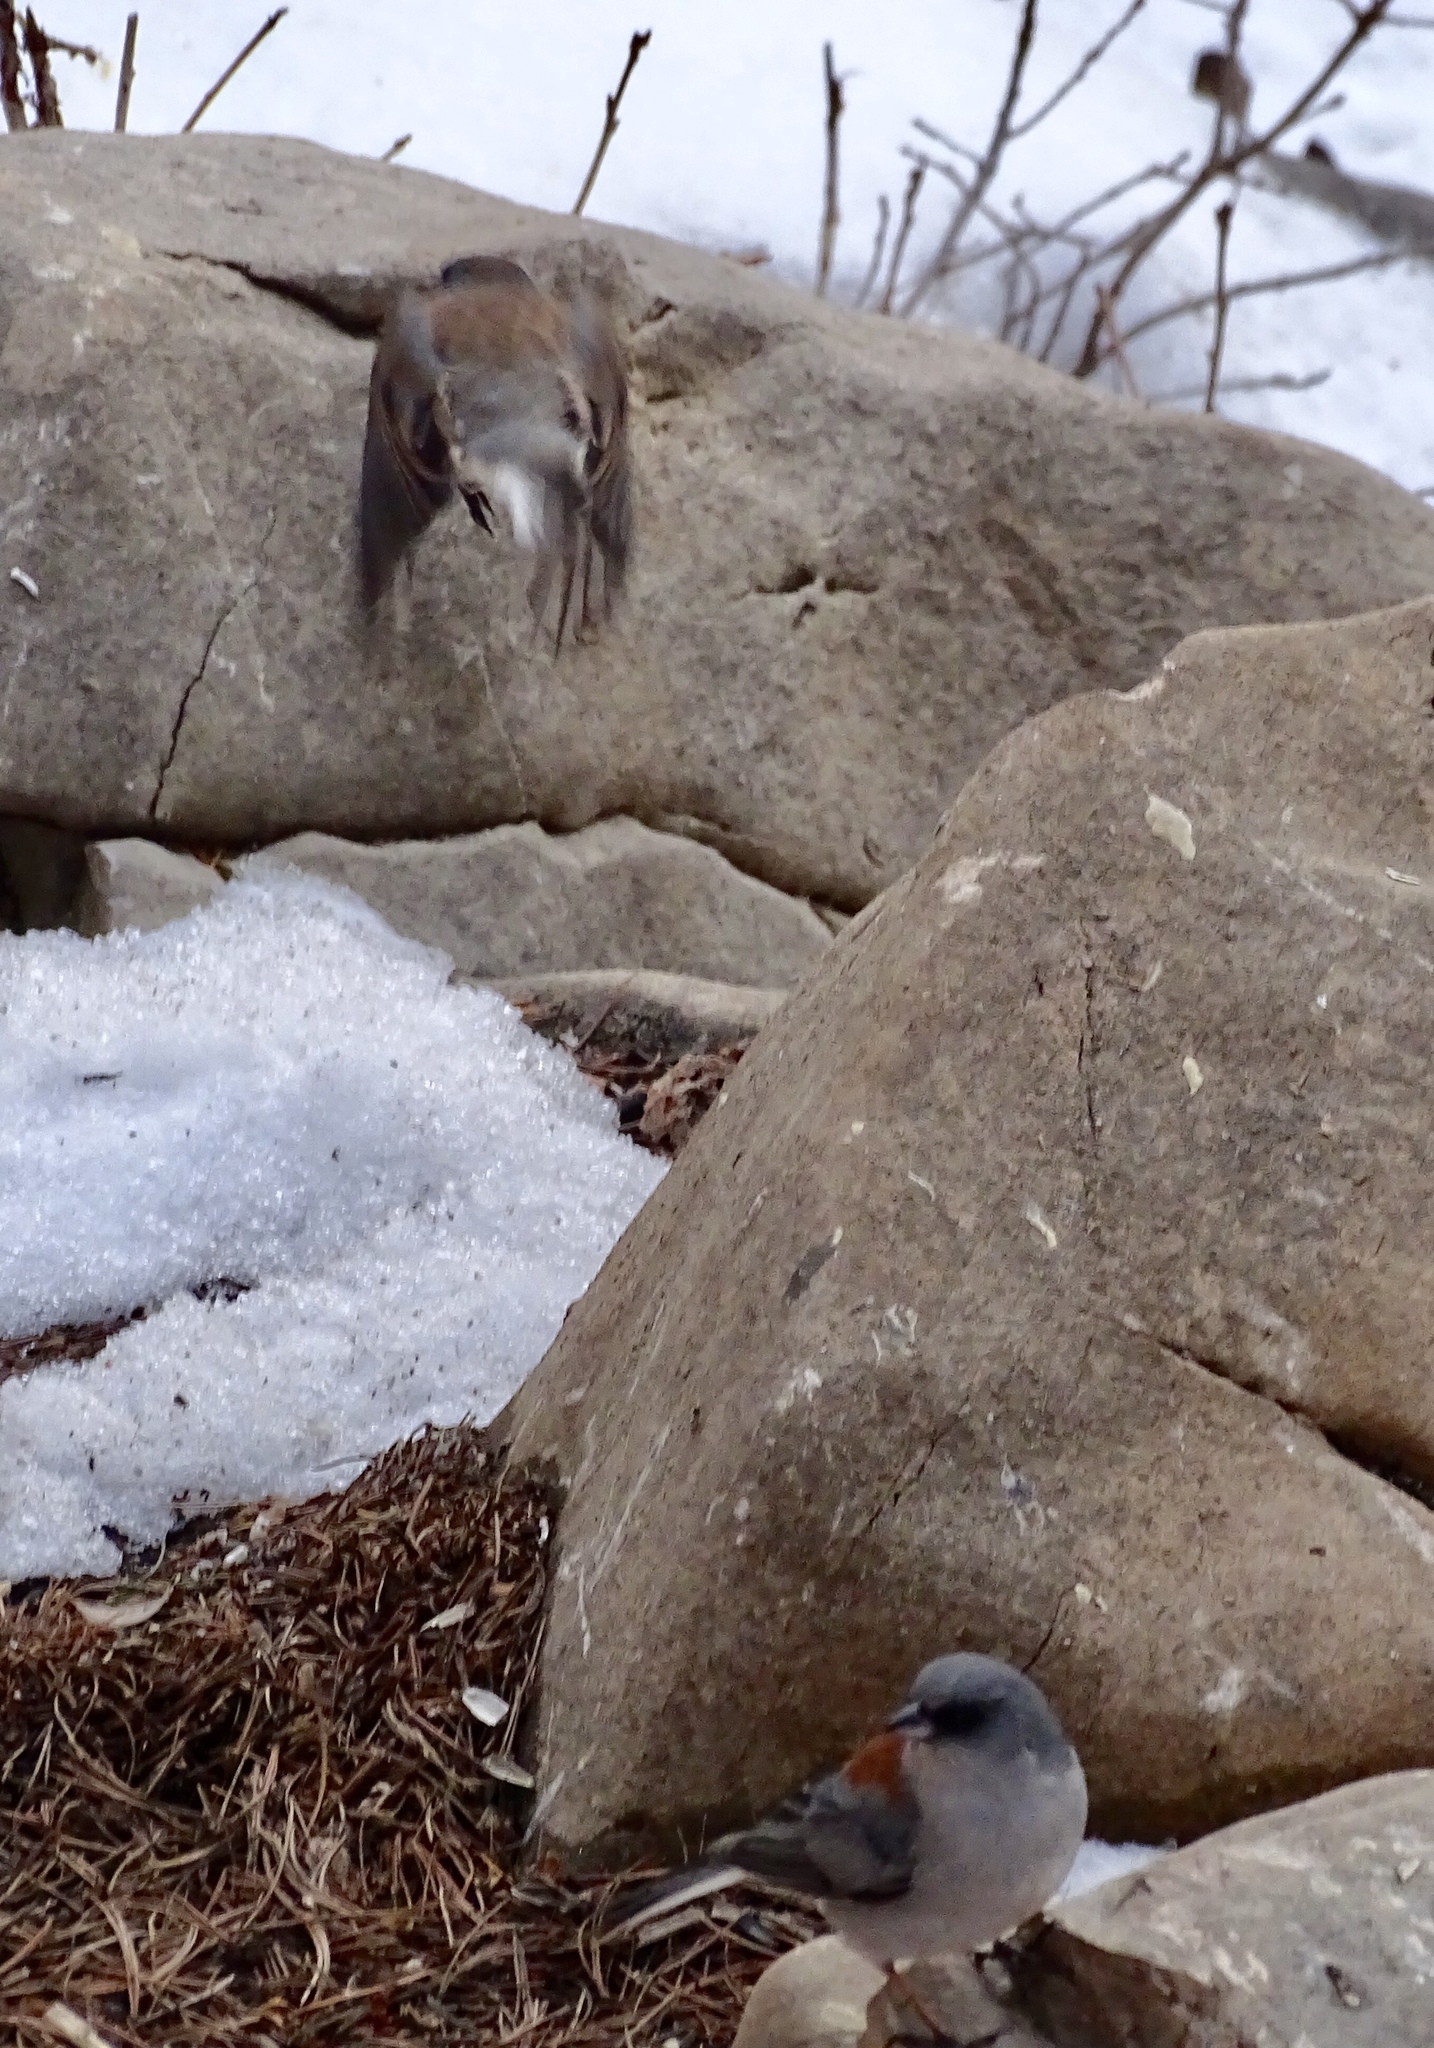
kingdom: Animalia
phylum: Chordata
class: Aves
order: Passeriformes
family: Passerellidae
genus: Junco
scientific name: Junco hyemalis
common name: Dark-eyed junco
